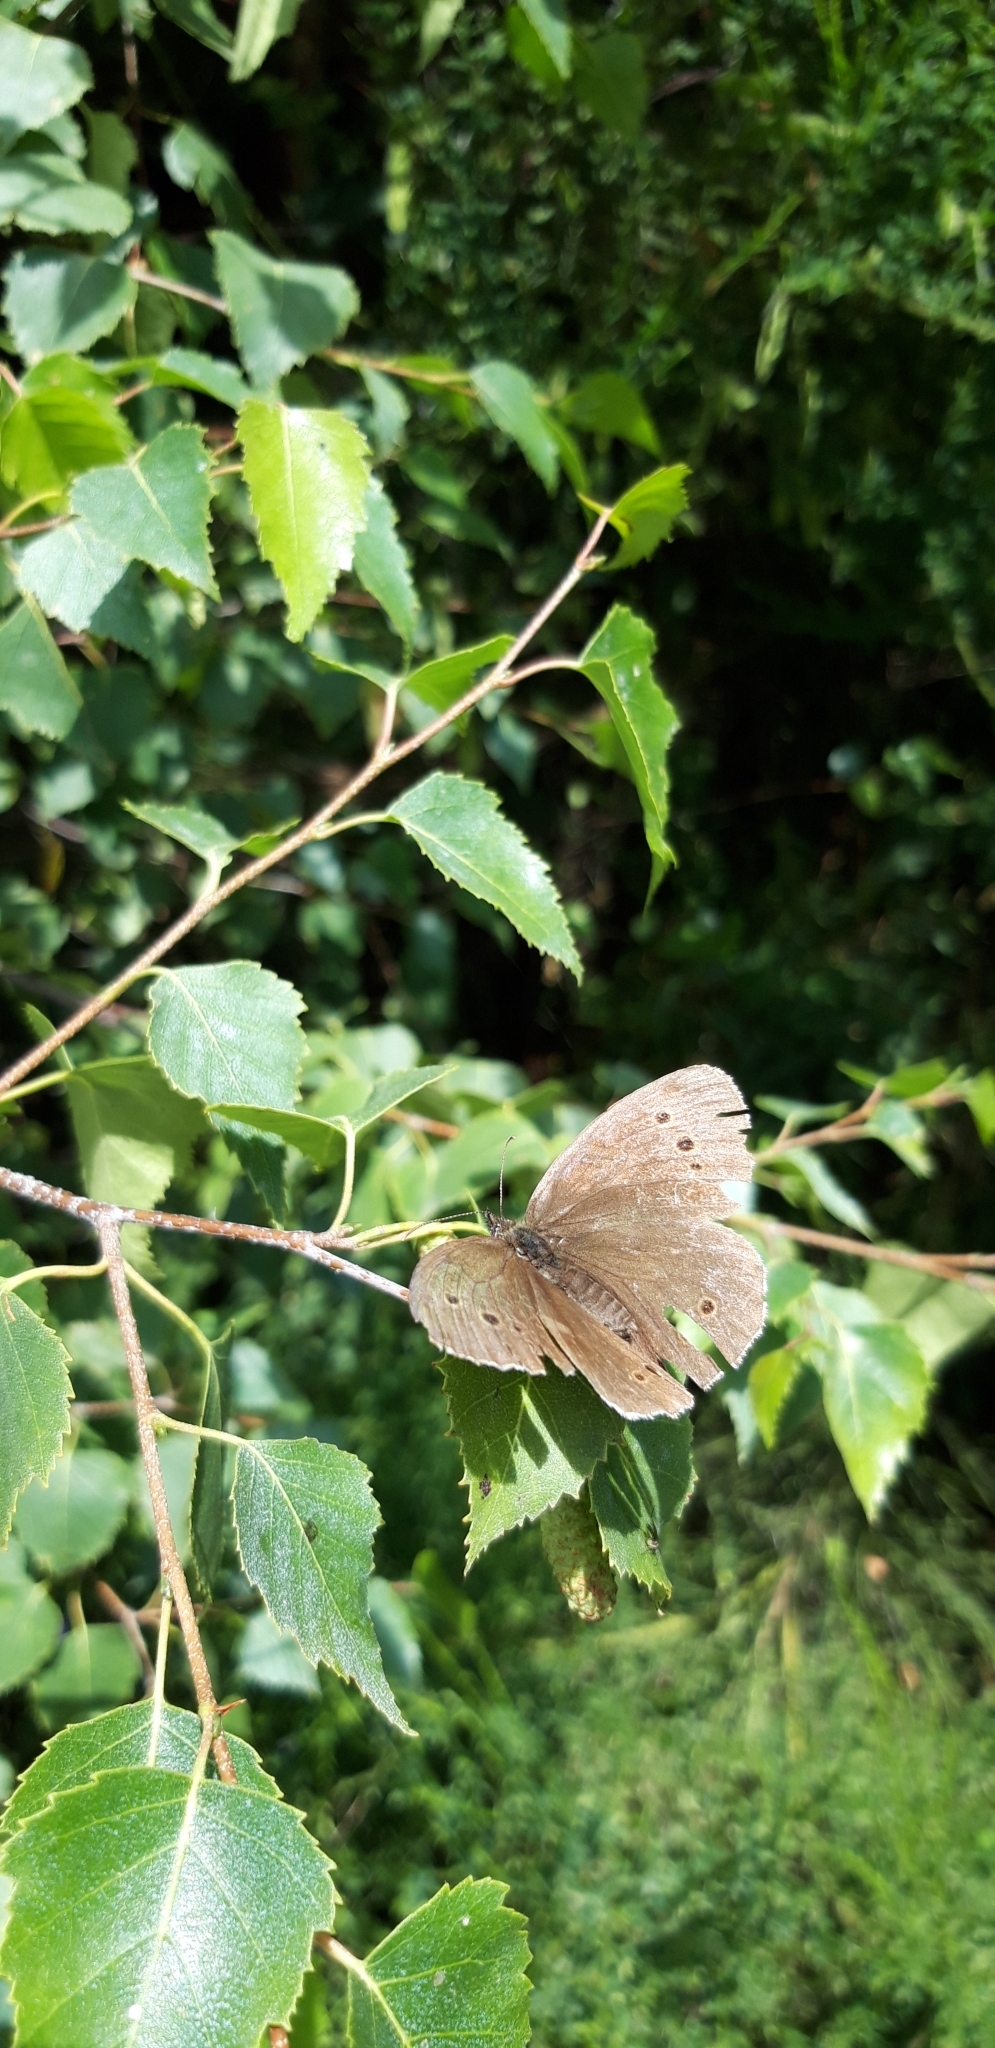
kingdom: Animalia
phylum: Arthropoda
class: Insecta
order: Lepidoptera
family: Nymphalidae
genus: Aphantopus
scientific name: Aphantopus hyperantus
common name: Ringlet
